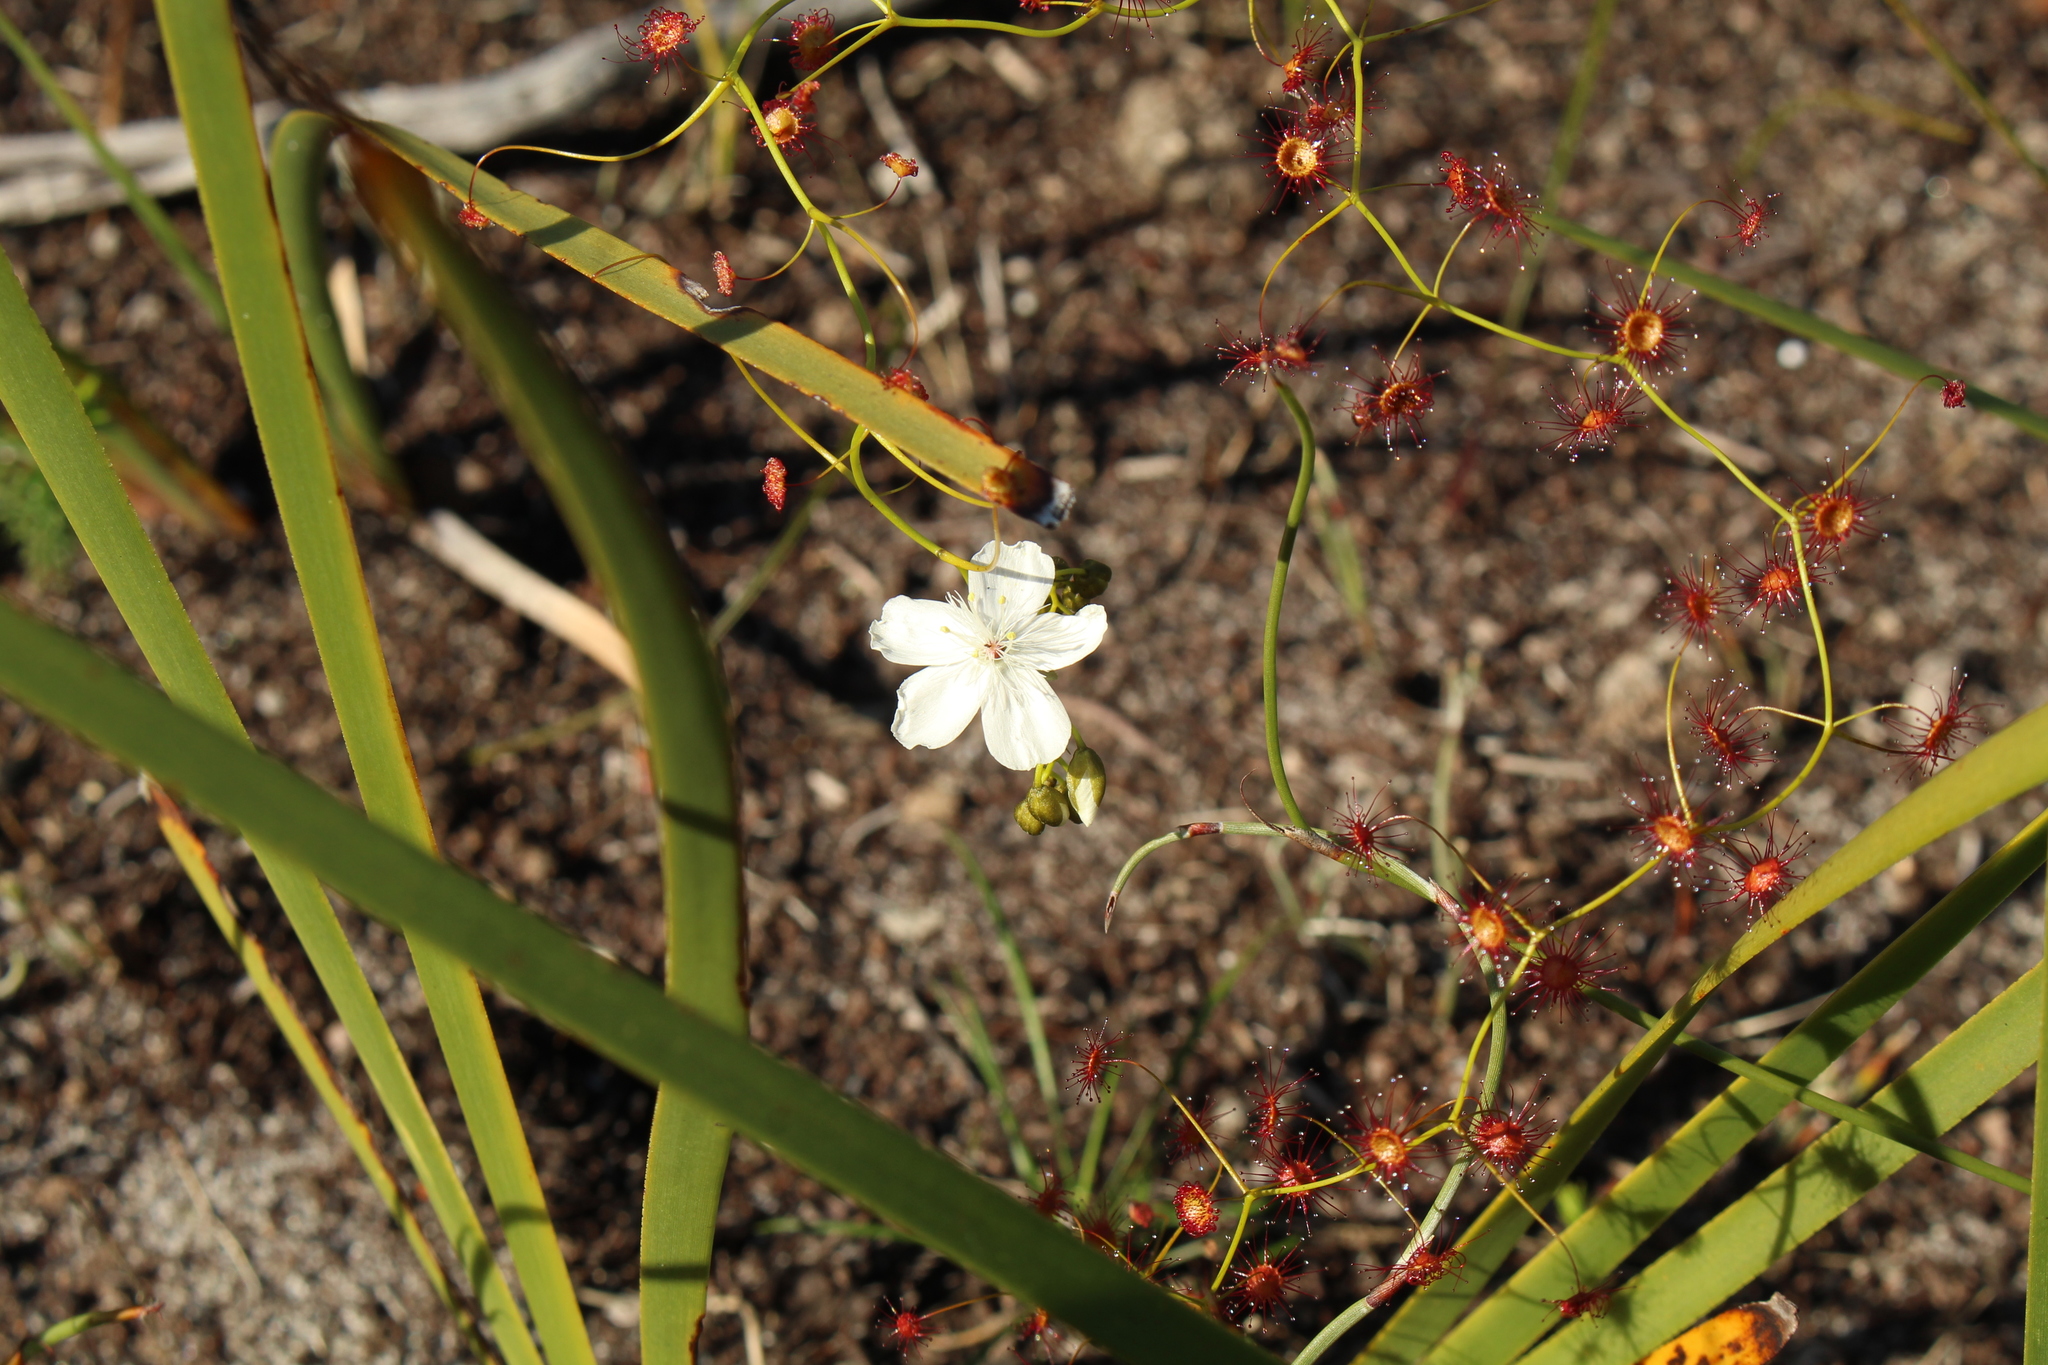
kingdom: Plantae
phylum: Tracheophyta
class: Magnoliopsida
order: Caryophyllales
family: Droseraceae
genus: Drosera
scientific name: Drosera pallida
